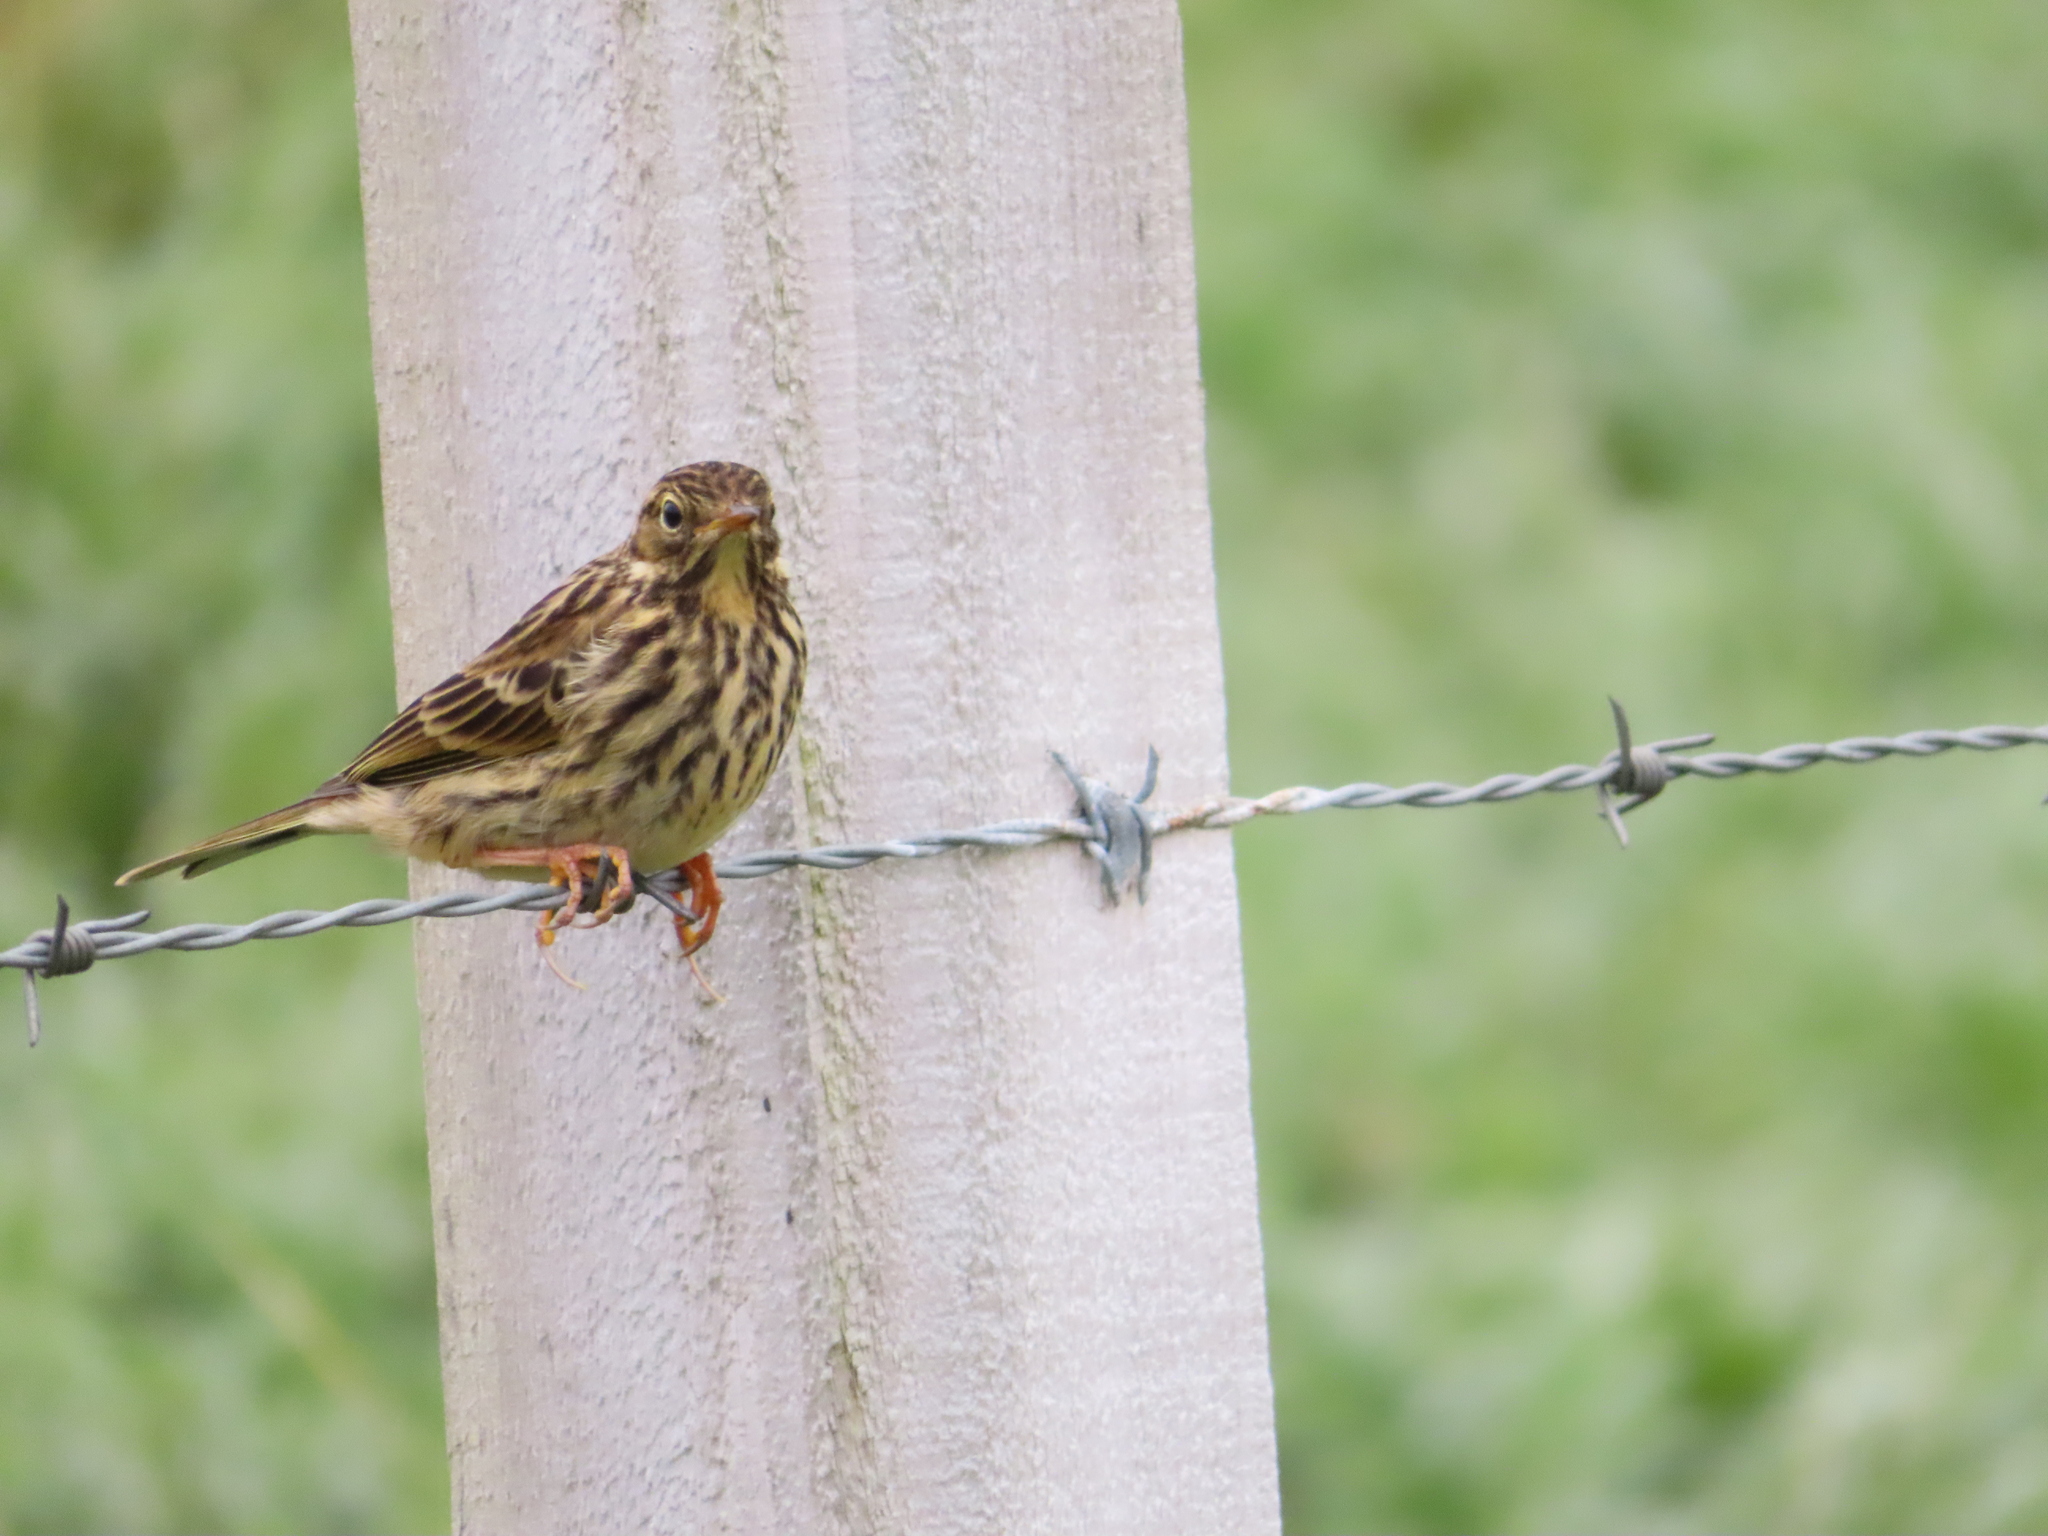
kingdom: Animalia
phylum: Chordata
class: Aves
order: Passeriformes
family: Motacillidae
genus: Anthus
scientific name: Anthus pratensis
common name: Meadow pipit
